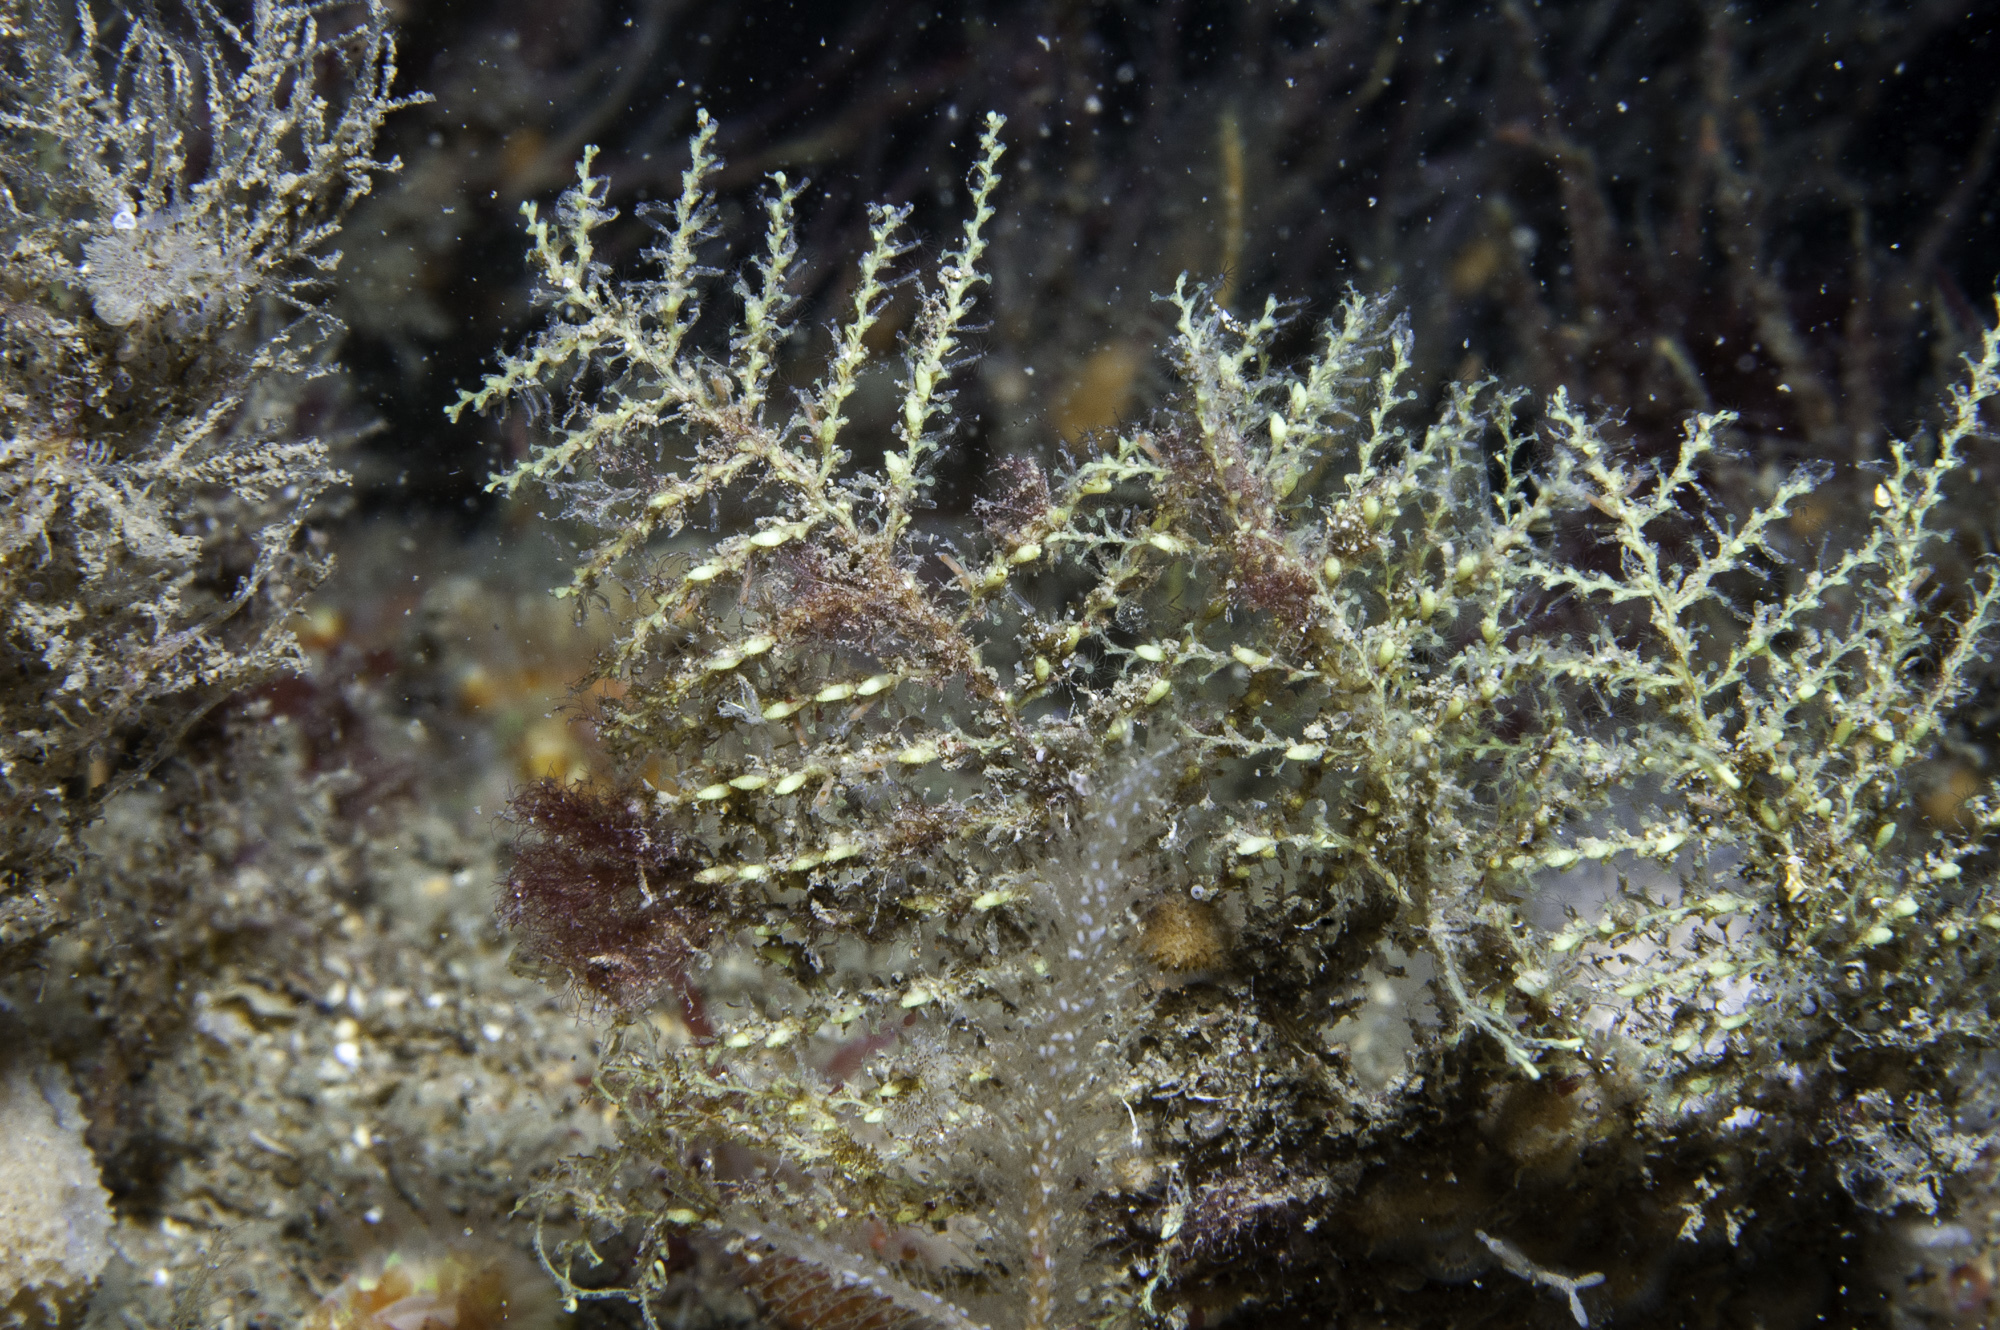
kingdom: Animalia
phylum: Cnidaria
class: Hydrozoa
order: Leptothecata
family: Sertularellidae
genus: Sertularella
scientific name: Sertularella gayi
